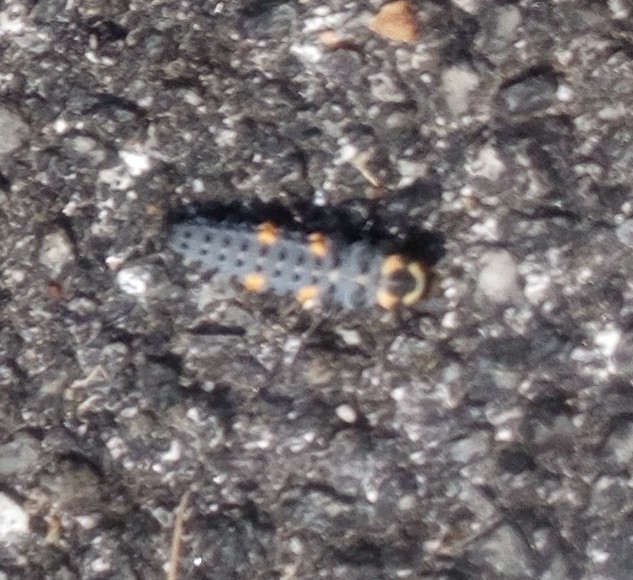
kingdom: Animalia
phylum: Arthropoda
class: Insecta
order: Coleoptera
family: Coccinellidae
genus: Coccinella
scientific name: Coccinella septempunctata
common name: Sevenspotted lady beetle
